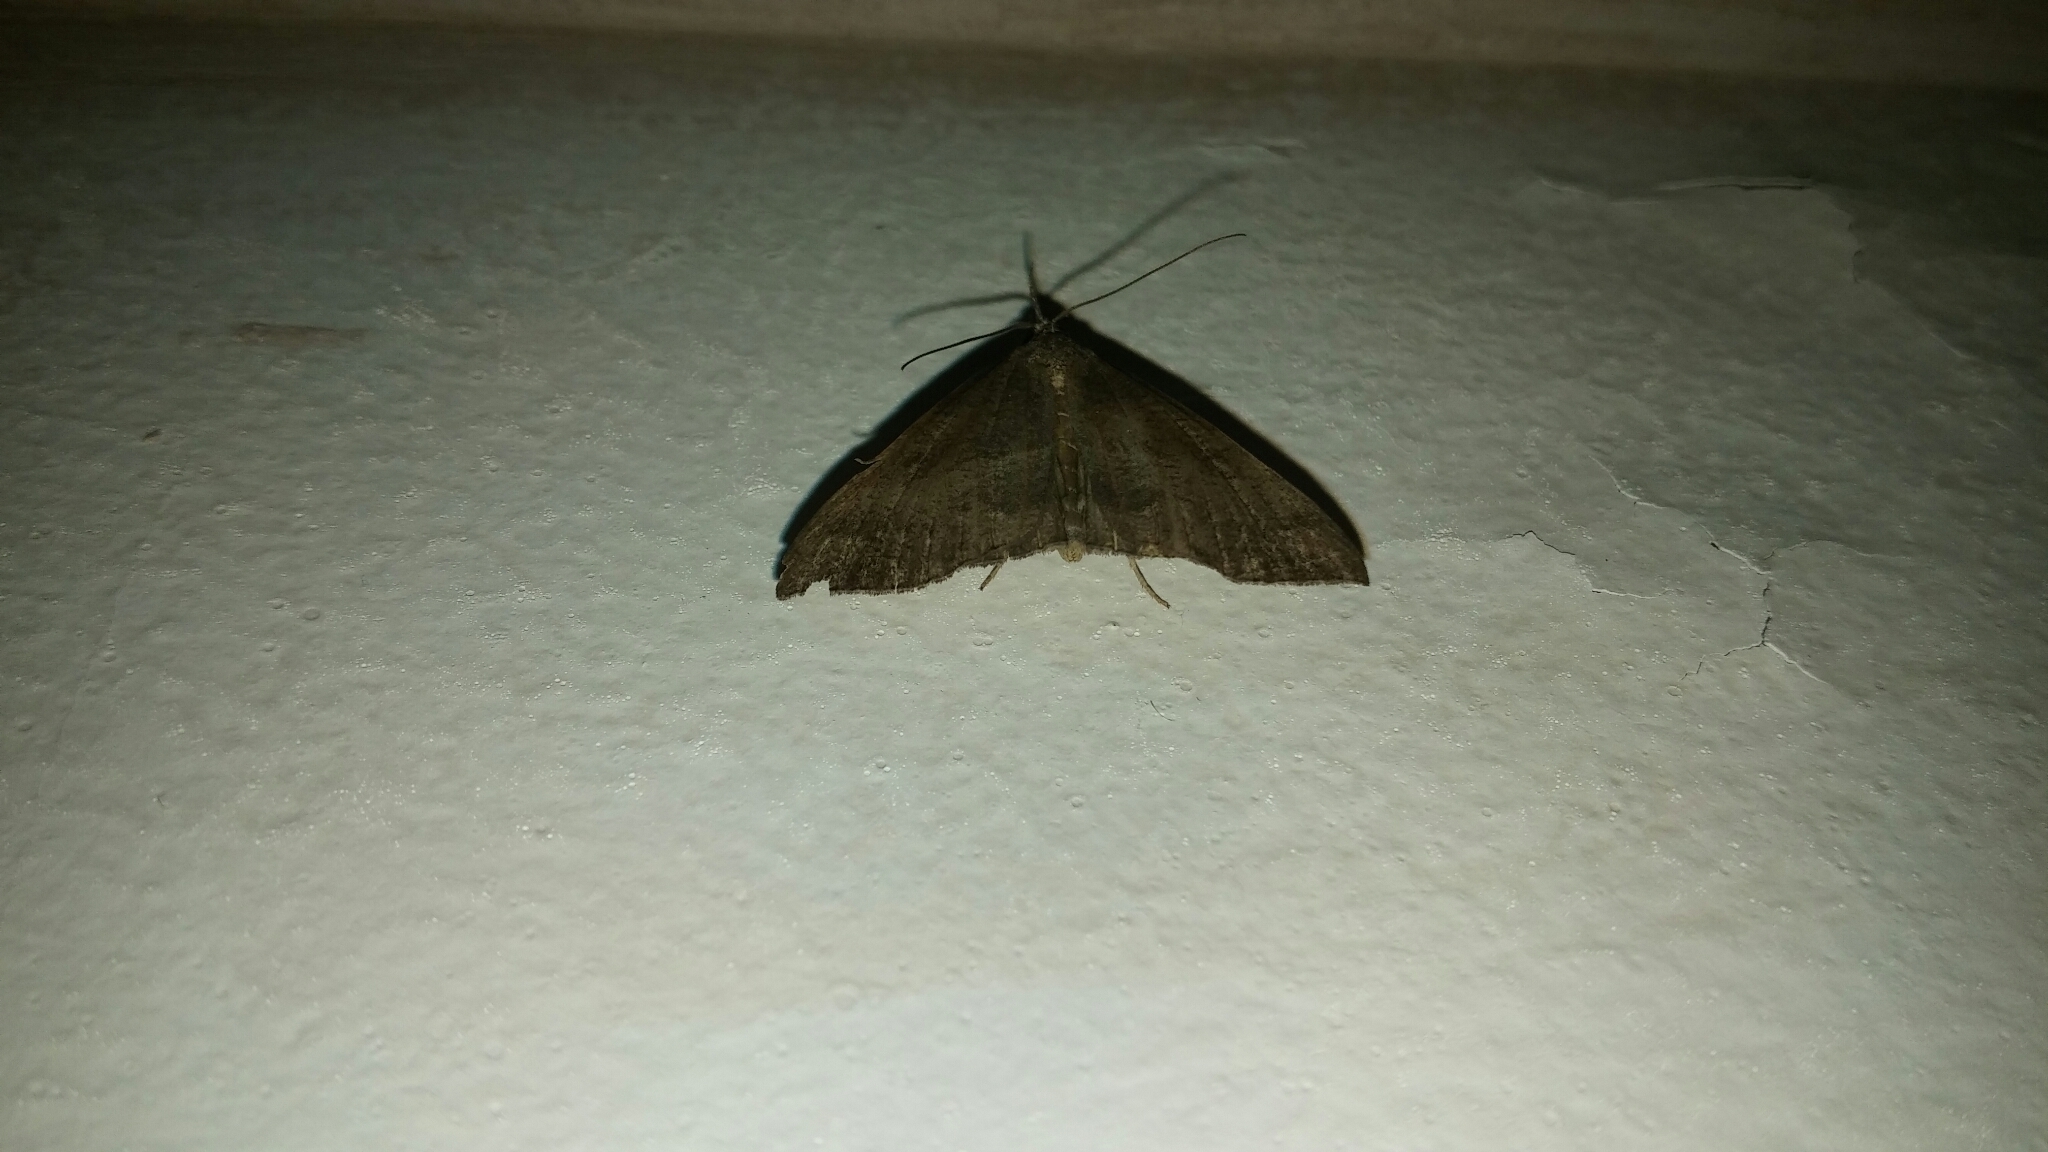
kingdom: Animalia
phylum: Arthropoda
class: Insecta
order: Lepidoptera
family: Erebidae
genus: Hypena
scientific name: Hypena proboscidalis
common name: Snout
